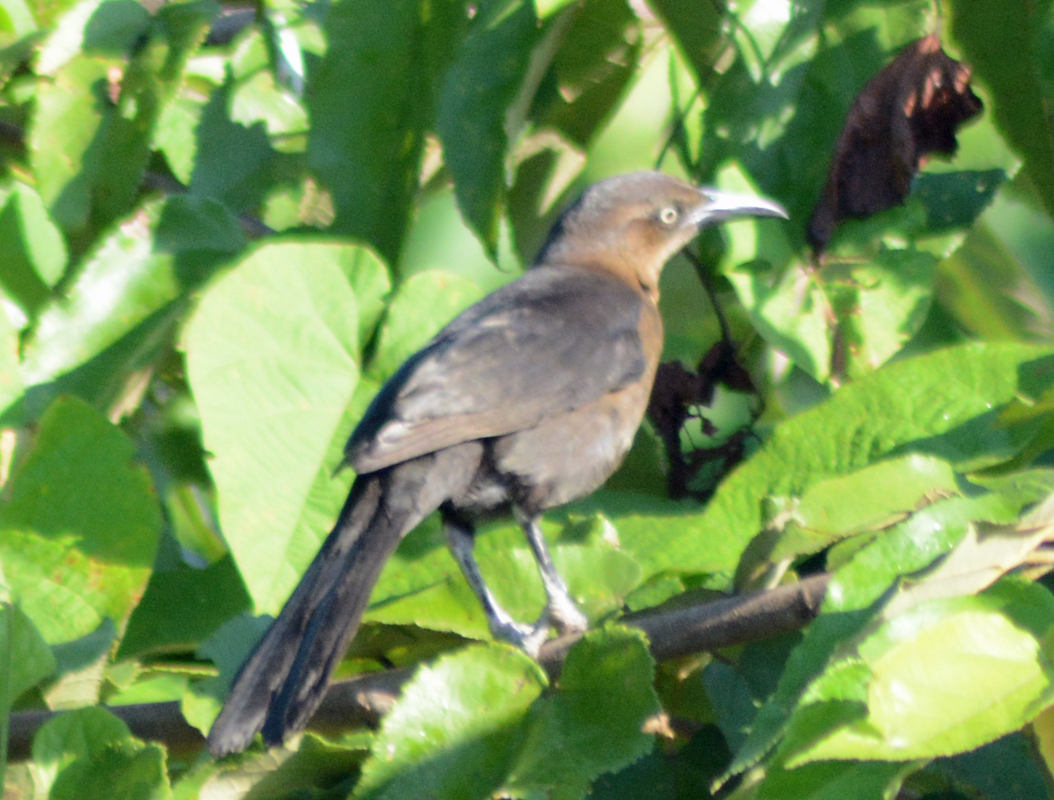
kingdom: Animalia
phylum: Chordata
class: Aves
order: Passeriformes
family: Icteridae
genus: Quiscalus
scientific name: Quiscalus mexicanus
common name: Great-tailed grackle
